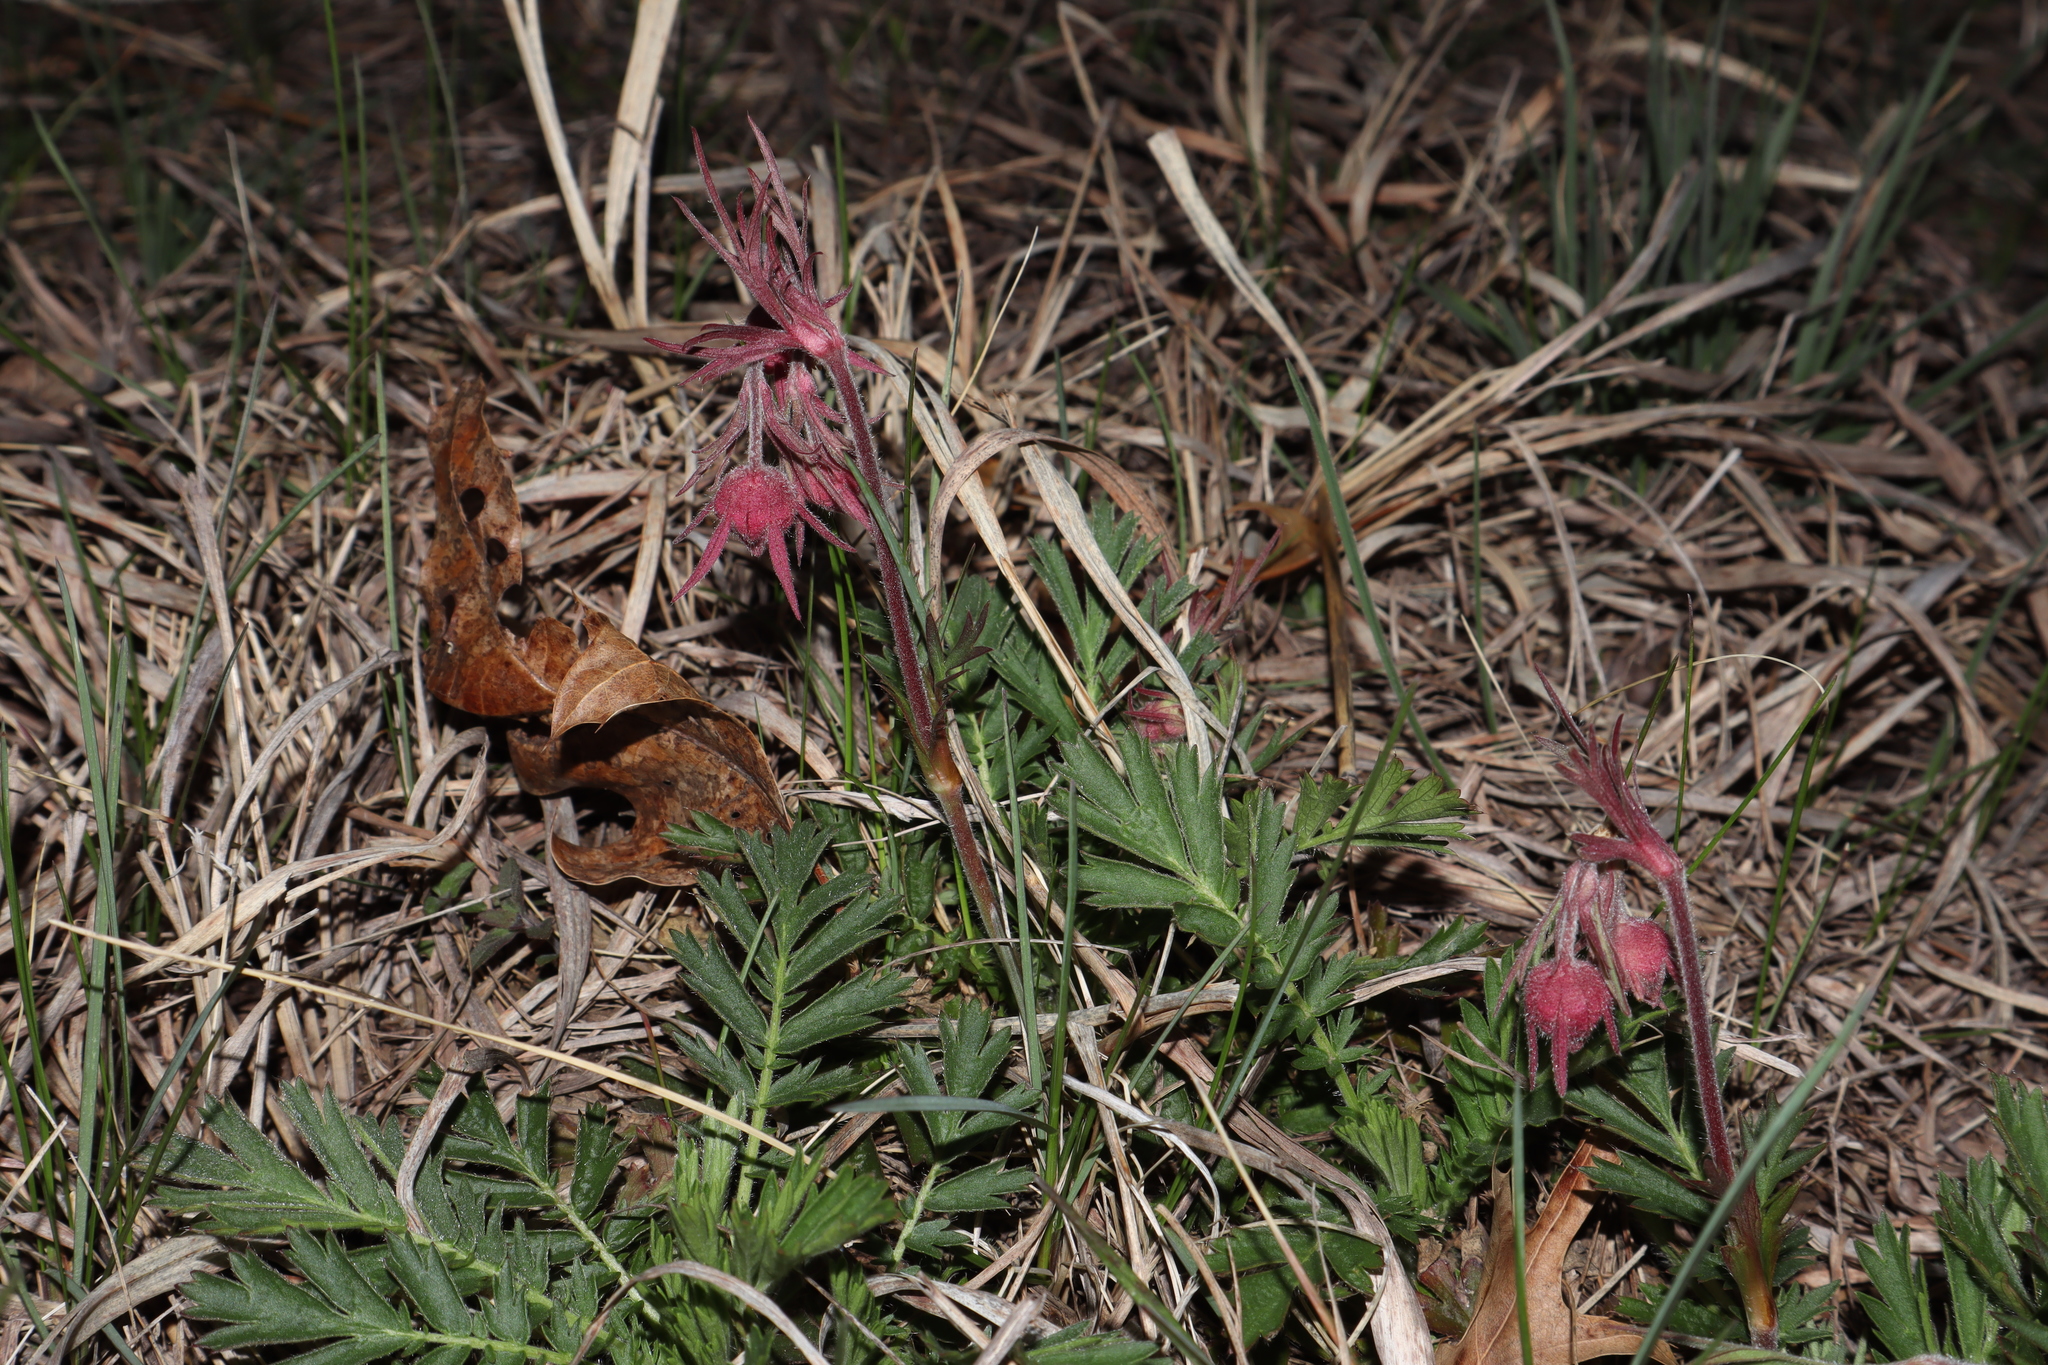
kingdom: Plantae
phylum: Tracheophyta
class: Magnoliopsida
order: Rosales
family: Rosaceae
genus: Geum
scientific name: Geum triflorum
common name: Old man's whiskers
